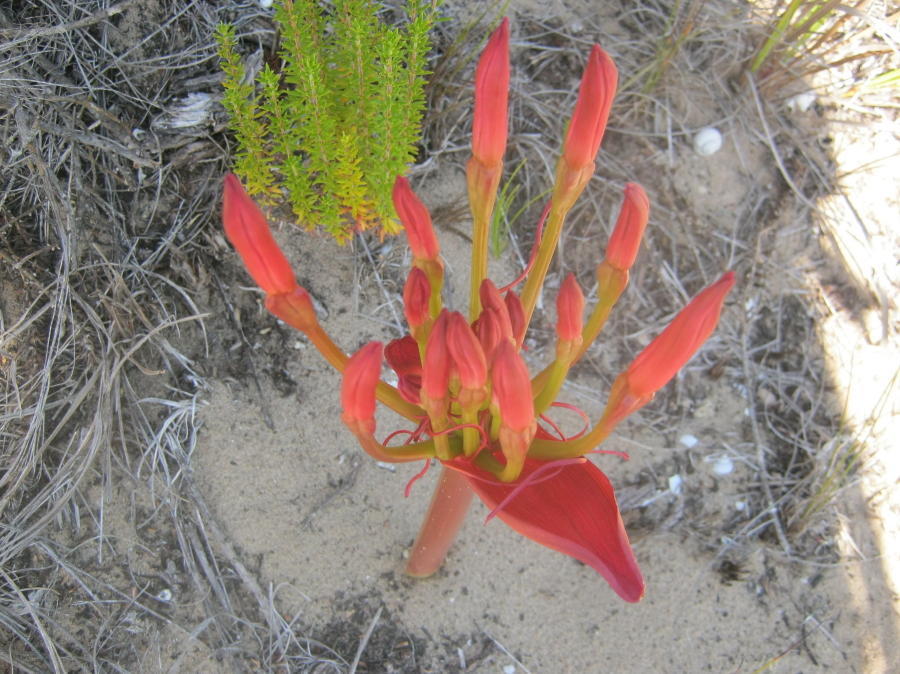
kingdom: Plantae
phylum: Tracheophyta
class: Liliopsida
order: Asparagales
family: Amaryllidaceae
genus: Brunsvigia
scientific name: Brunsvigia orientalis
